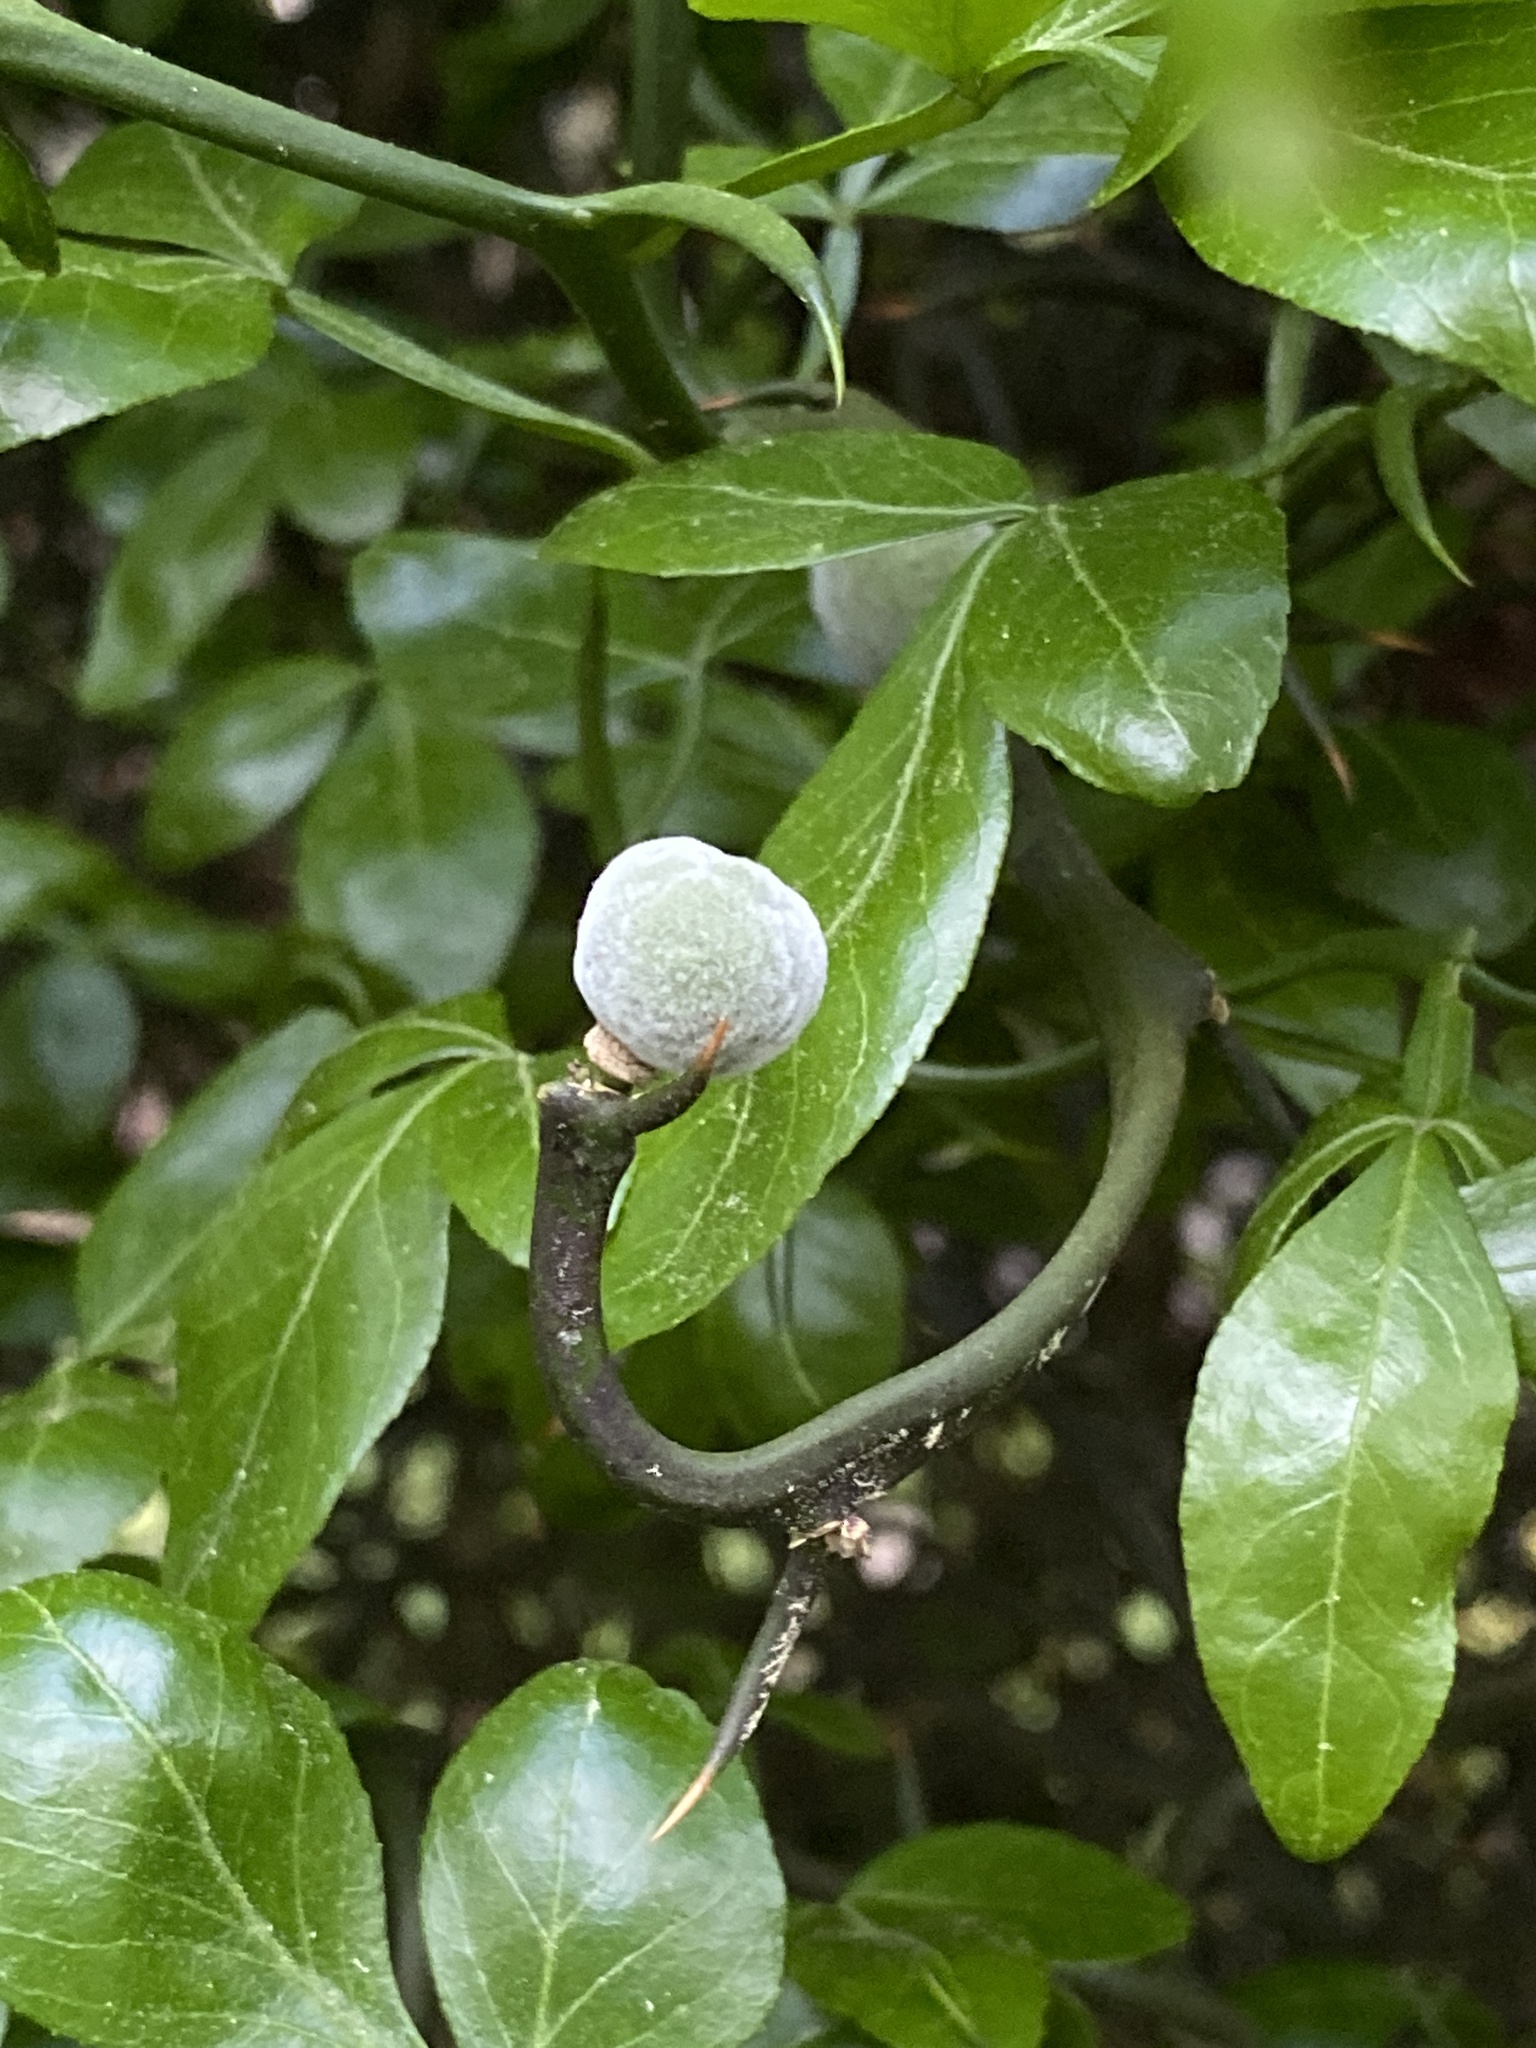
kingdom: Plantae
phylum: Tracheophyta
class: Magnoliopsida
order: Sapindales
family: Rutaceae
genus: Citrus
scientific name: Citrus trifoliata
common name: Japanese bitter-orange
